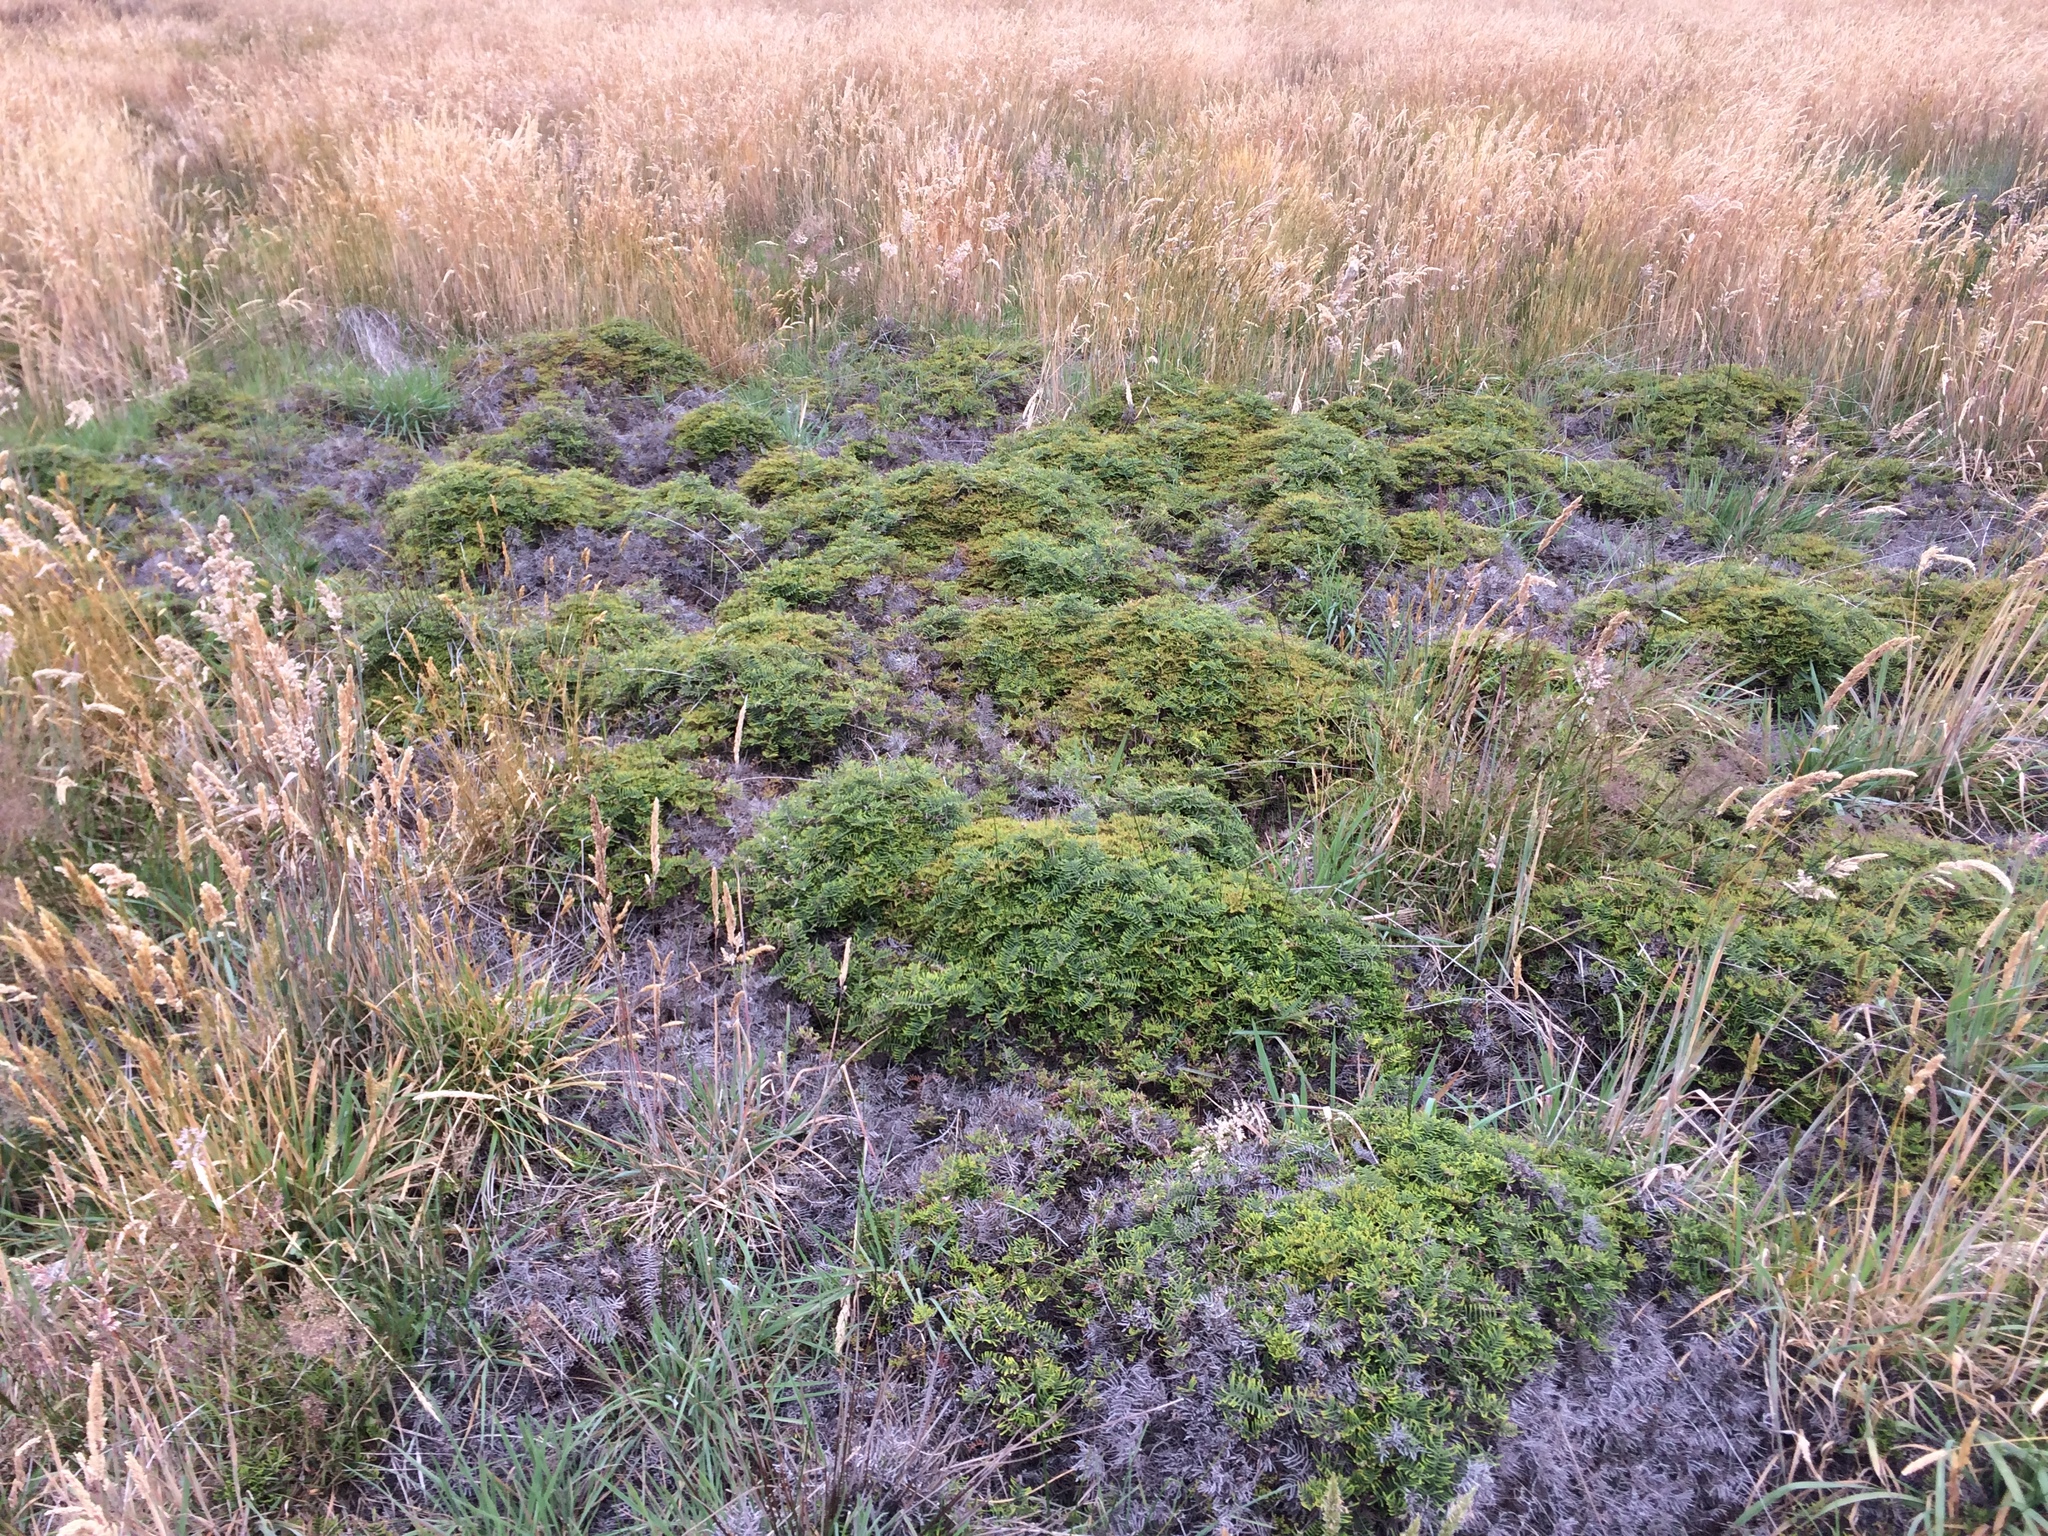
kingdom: Plantae
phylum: Tracheophyta
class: Polypodiopsida
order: Gleicheniales
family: Gleicheniaceae
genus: Gleichenia
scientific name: Gleichenia alpina
